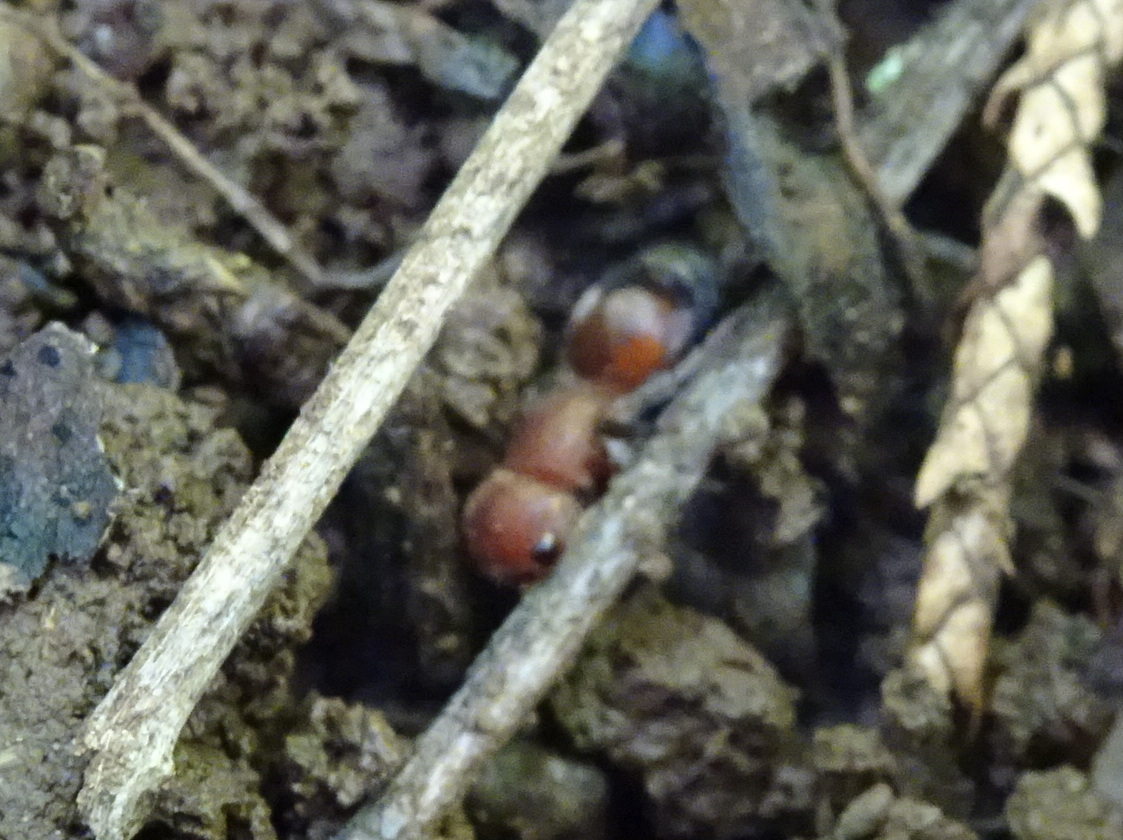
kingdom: Animalia
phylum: Arthropoda
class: Insecta
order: Hymenoptera
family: Mutillidae
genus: Pseudomethoca
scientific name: Pseudomethoca
